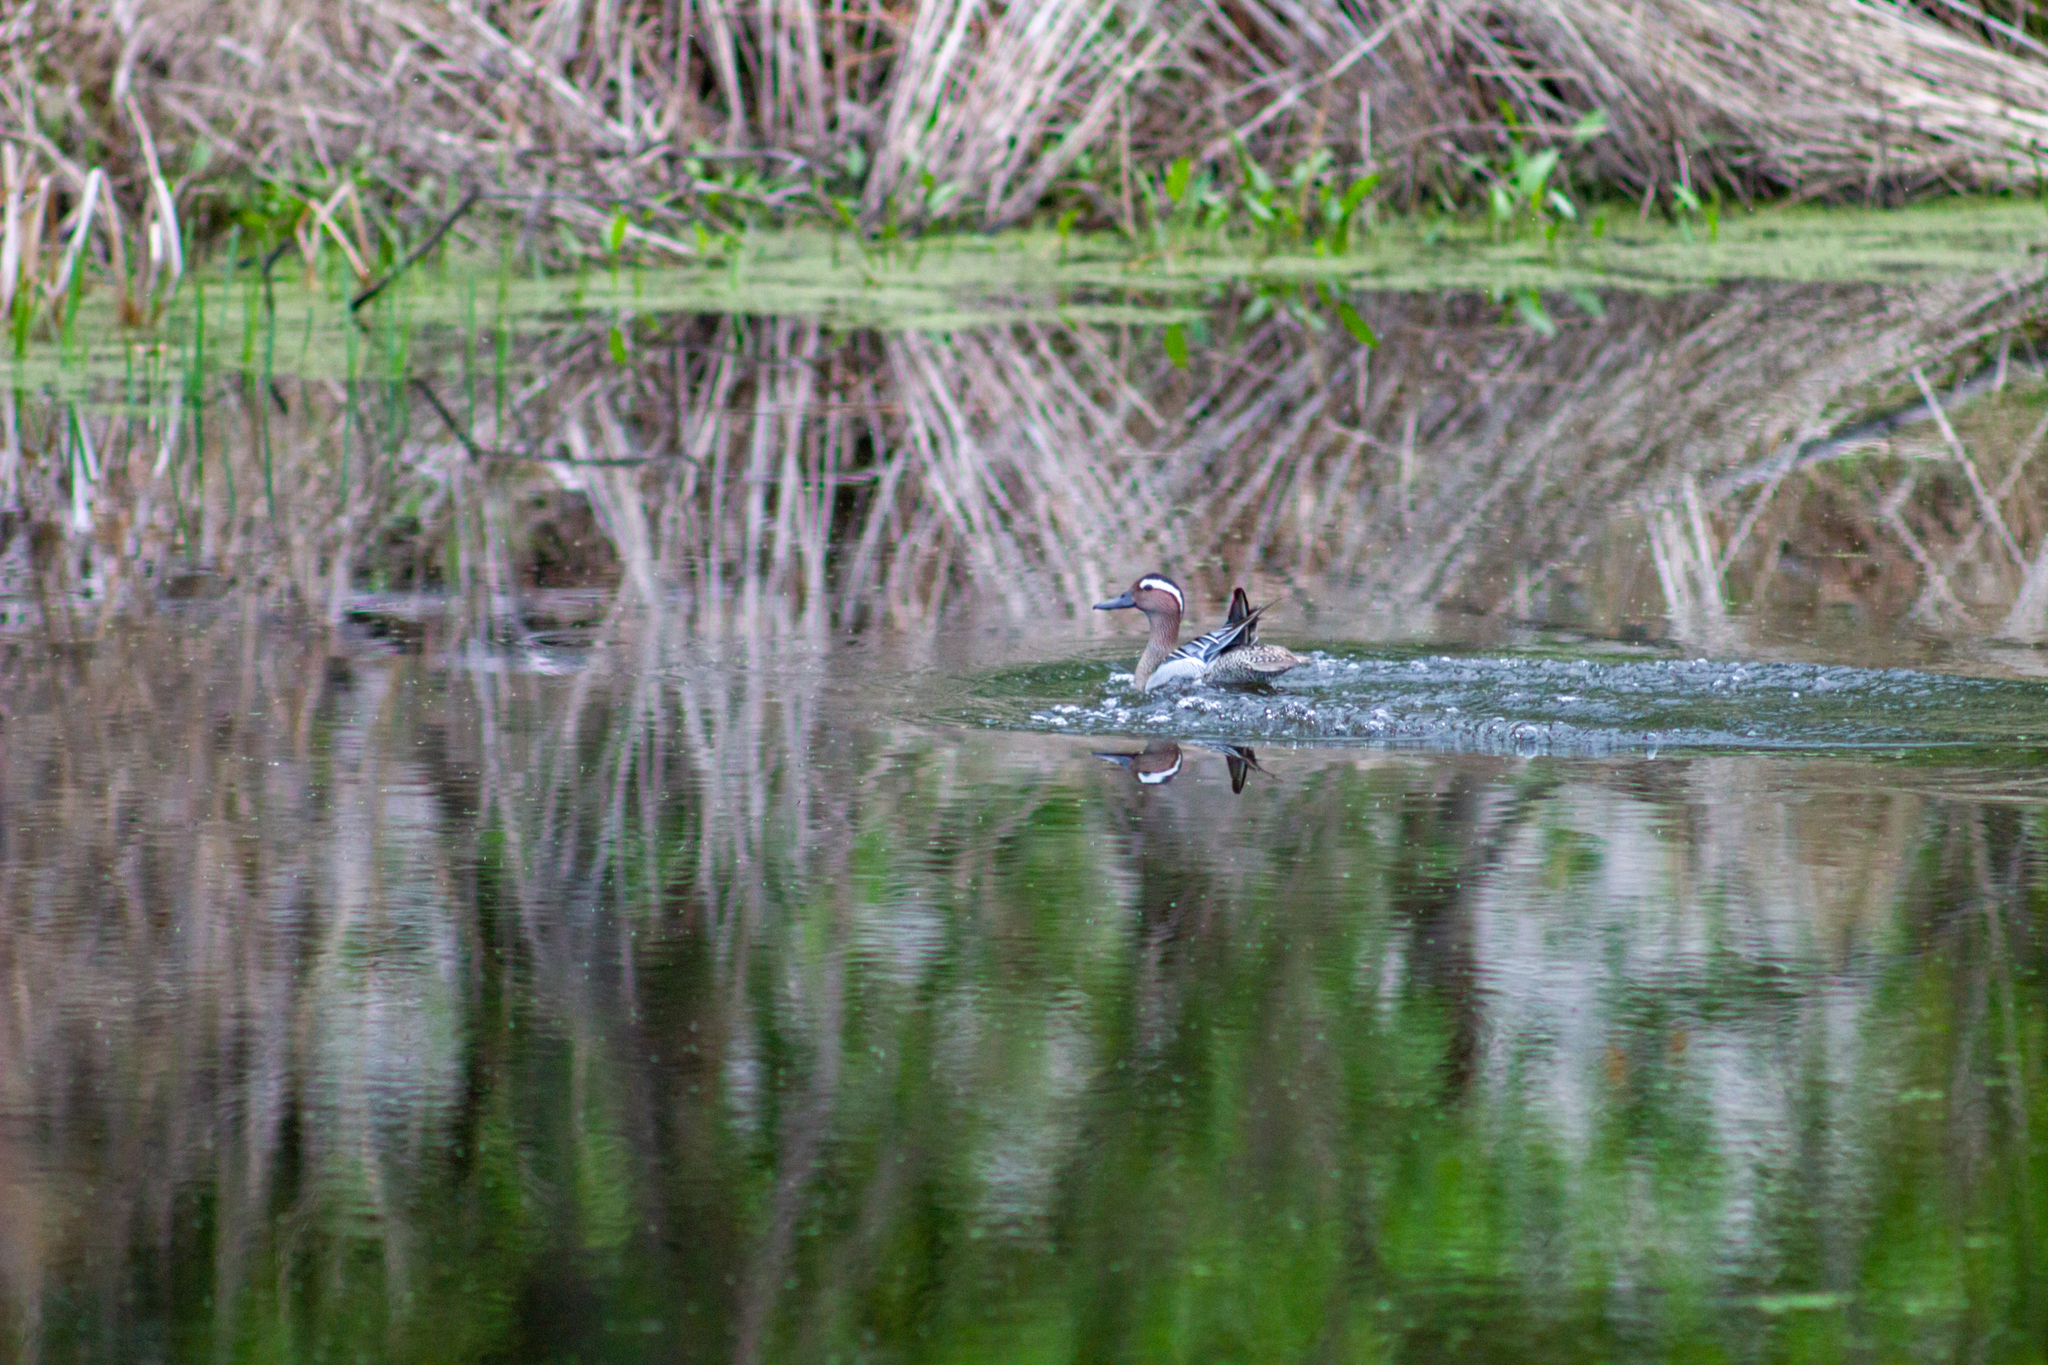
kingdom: Animalia
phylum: Chordata
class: Aves
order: Anseriformes
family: Anatidae
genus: Spatula
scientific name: Spatula querquedula
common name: Garganey
